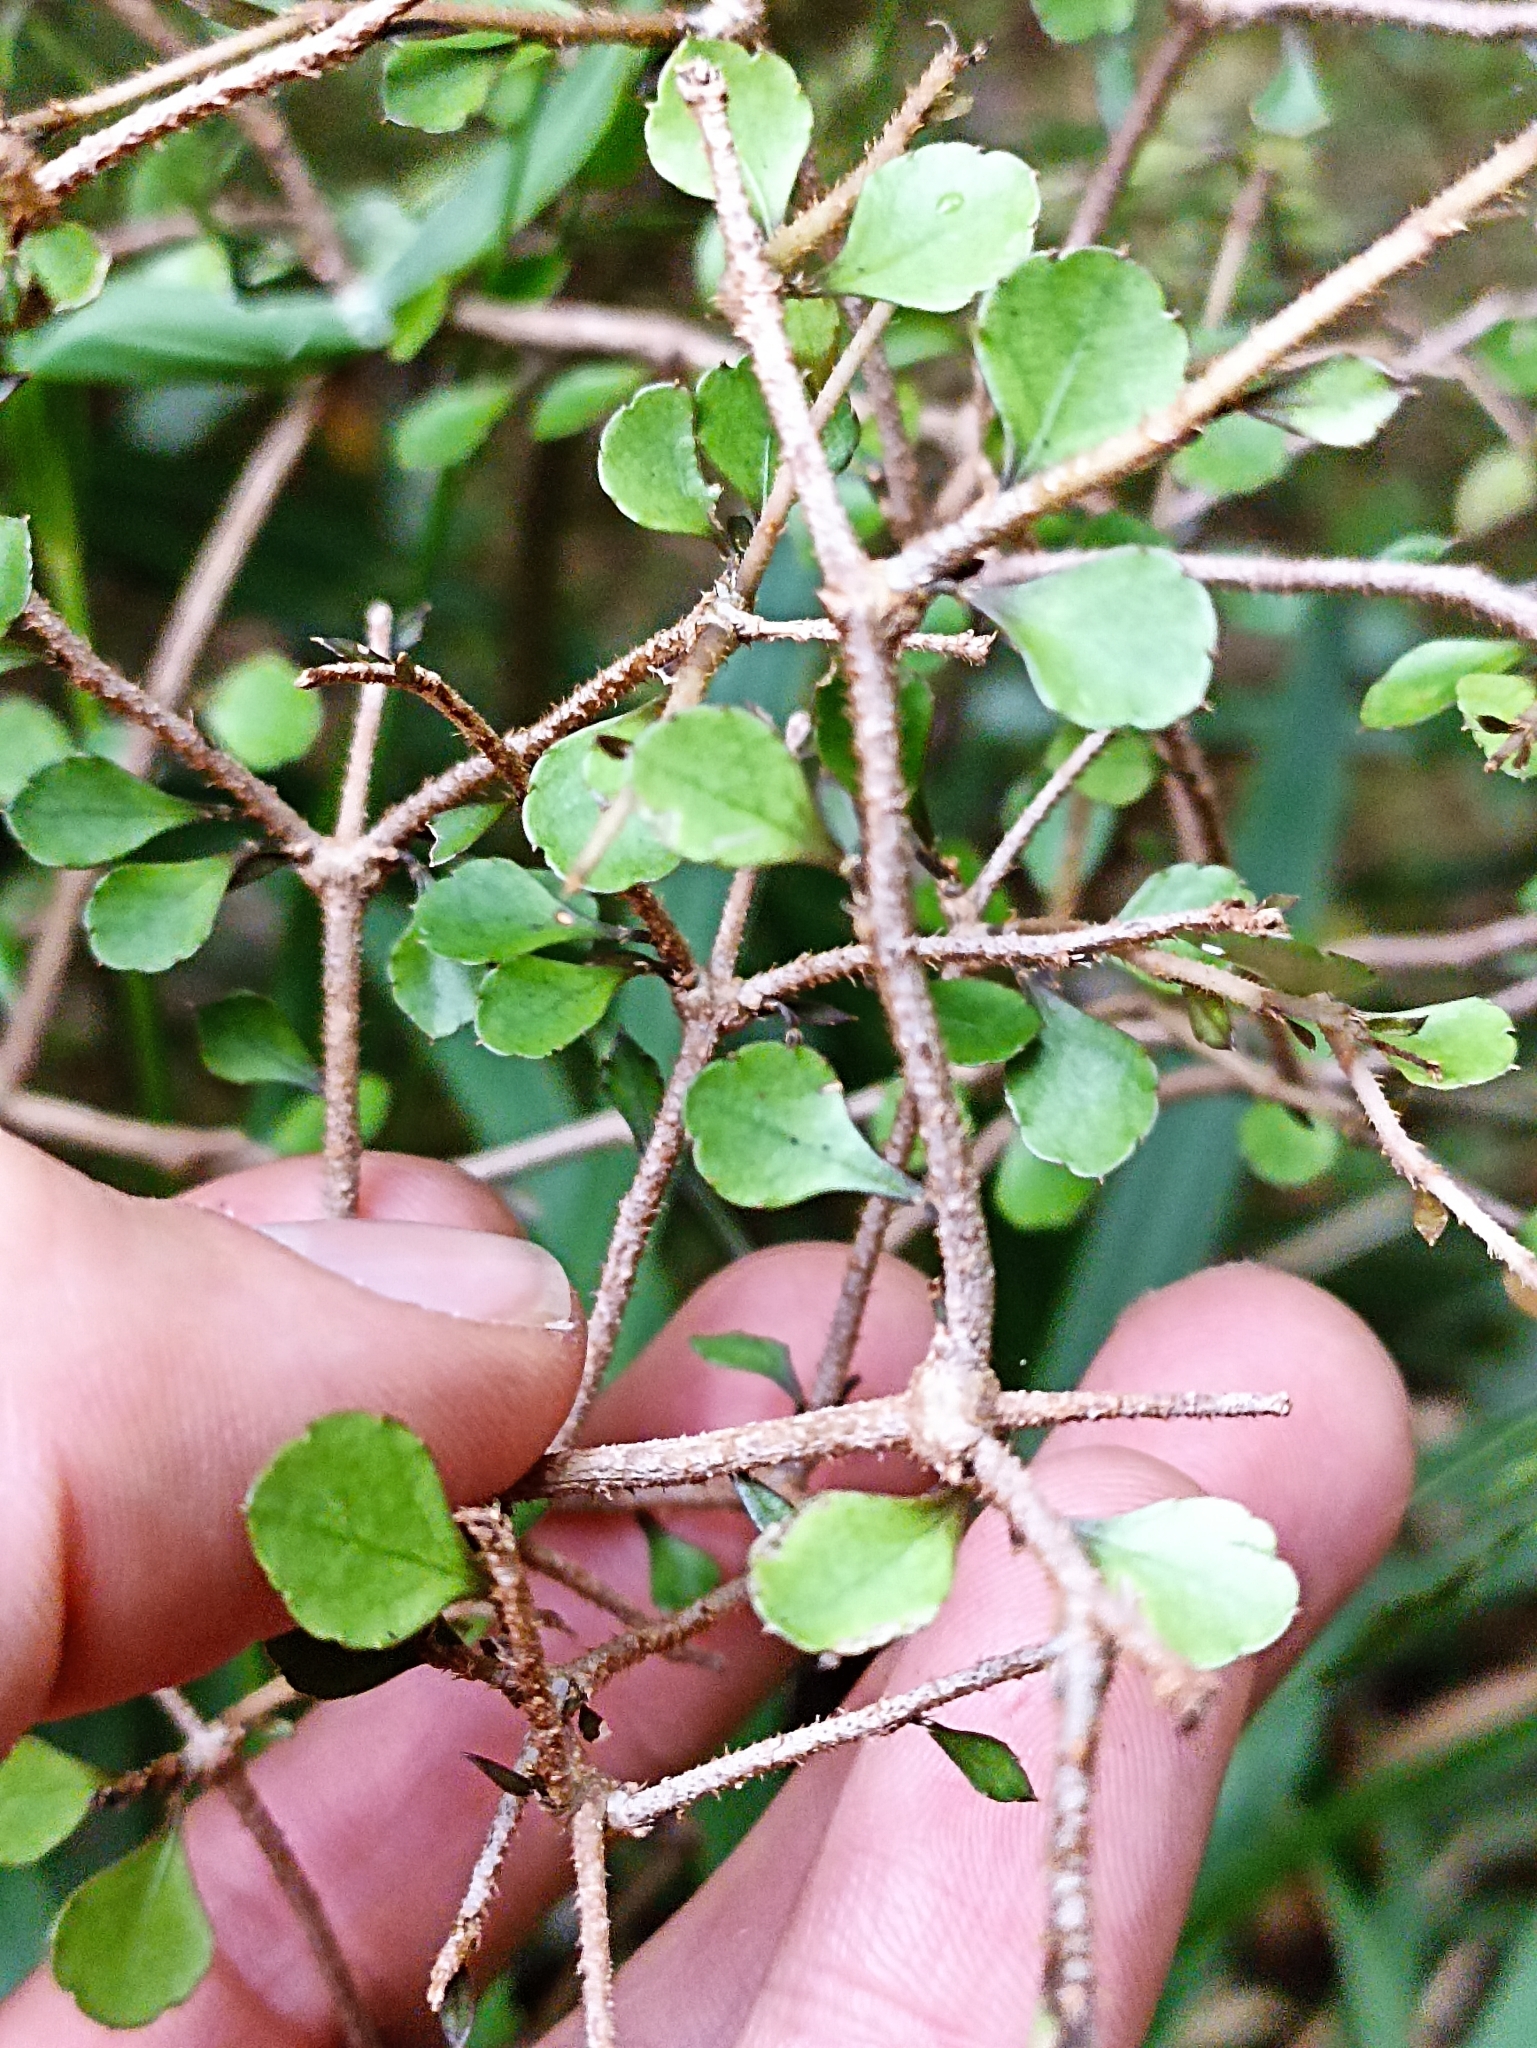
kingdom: Plantae
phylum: Tracheophyta
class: Magnoliopsida
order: Apiales
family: Araliaceae
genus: Raukaua
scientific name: Raukaua anomalus
